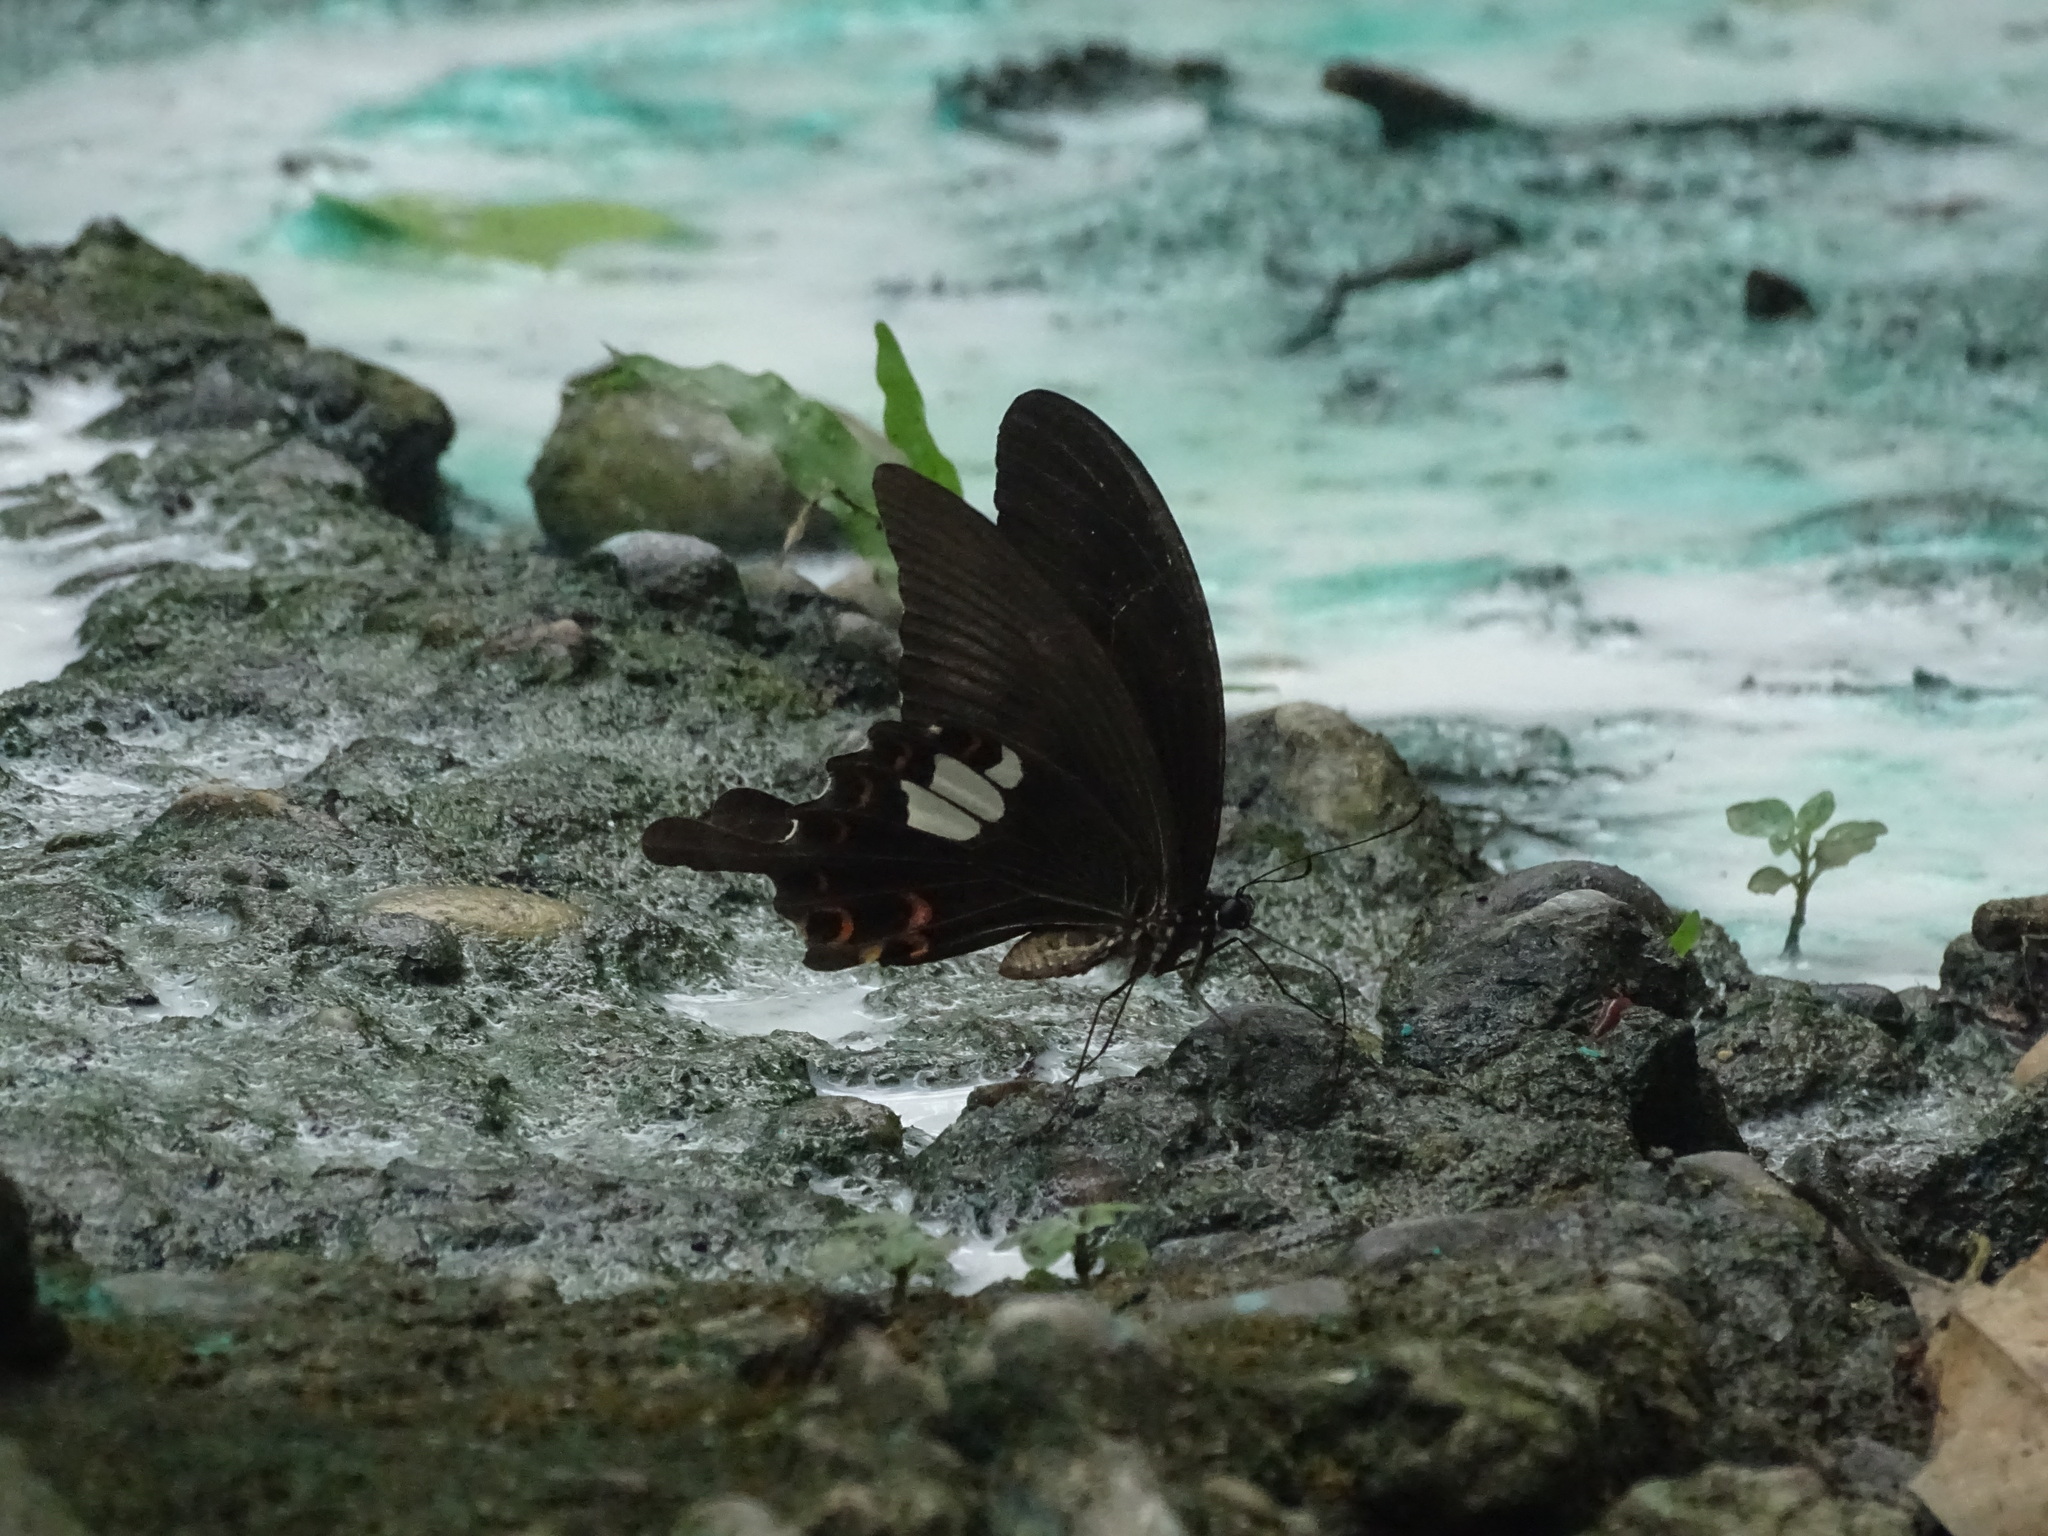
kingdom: Animalia
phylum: Arthropoda
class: Insecta
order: Lepidoptera
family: Papilionidae
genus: Papilio
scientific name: Papilio helenus
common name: Red helen
